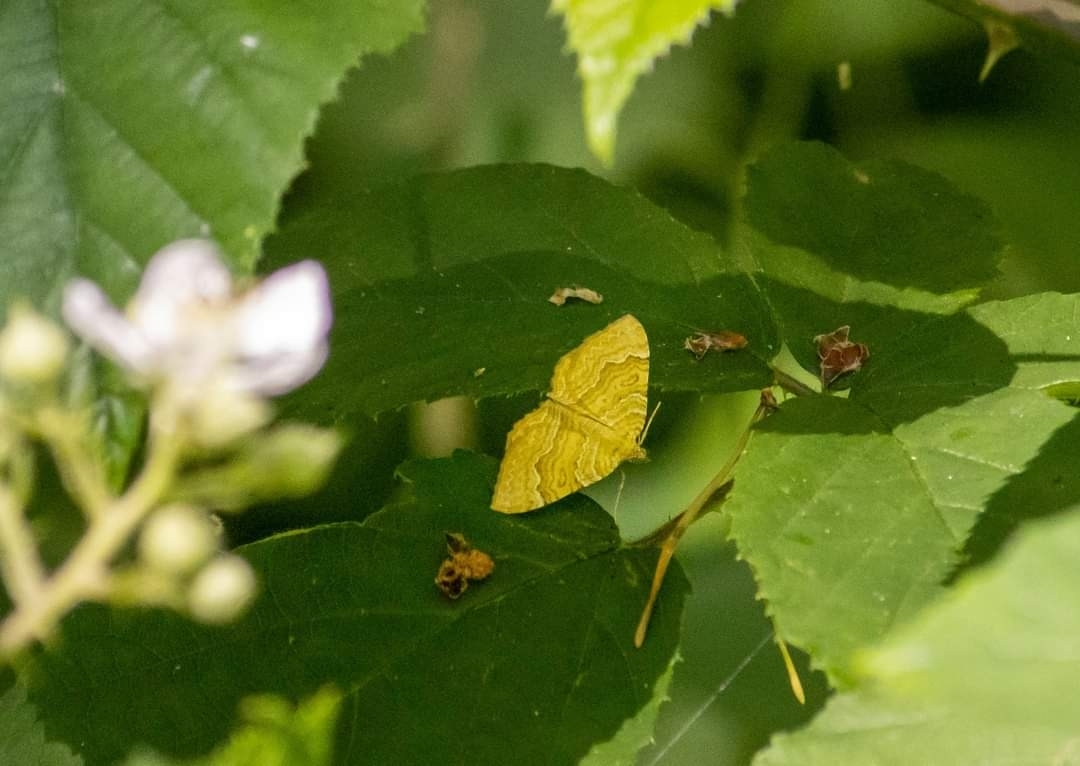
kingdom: Animalia
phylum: Arthropoda
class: Insecta
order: Lepidoptera
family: Geometridae
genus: Camptogramma
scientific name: Camptogramma bilineata
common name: Yellow shell
